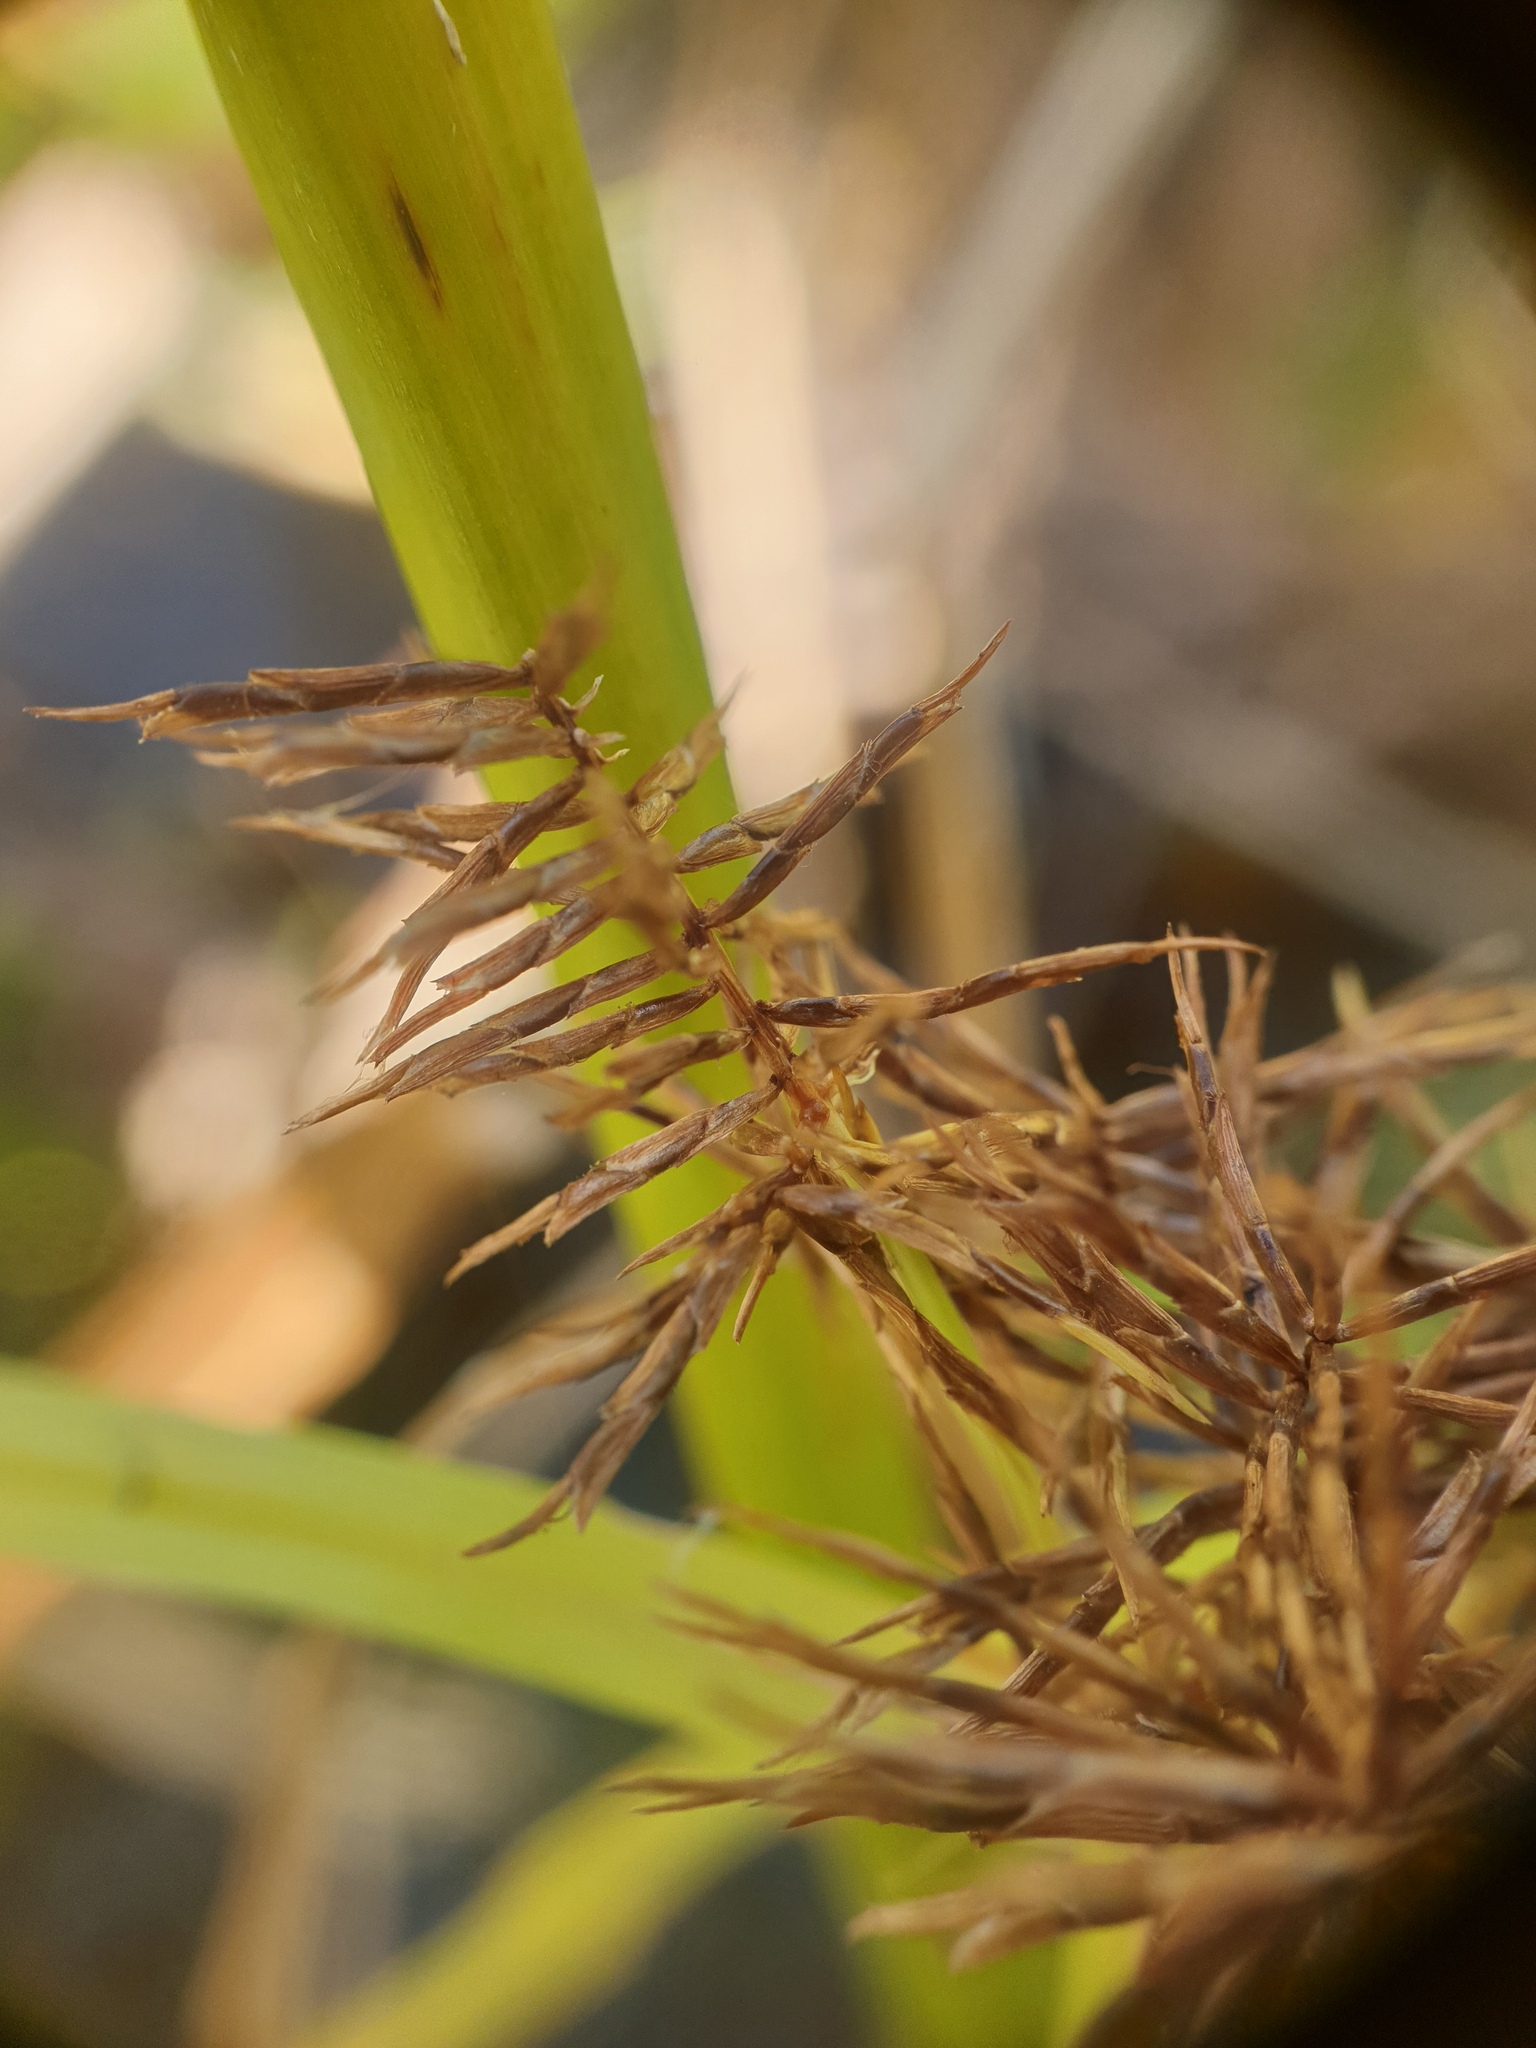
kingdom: Plantae
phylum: Tracheophyta
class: Liliopsida
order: Poales
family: Cyperaceae
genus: Cyperus
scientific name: Cyperus odoratus
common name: Fragrant flatsedge
